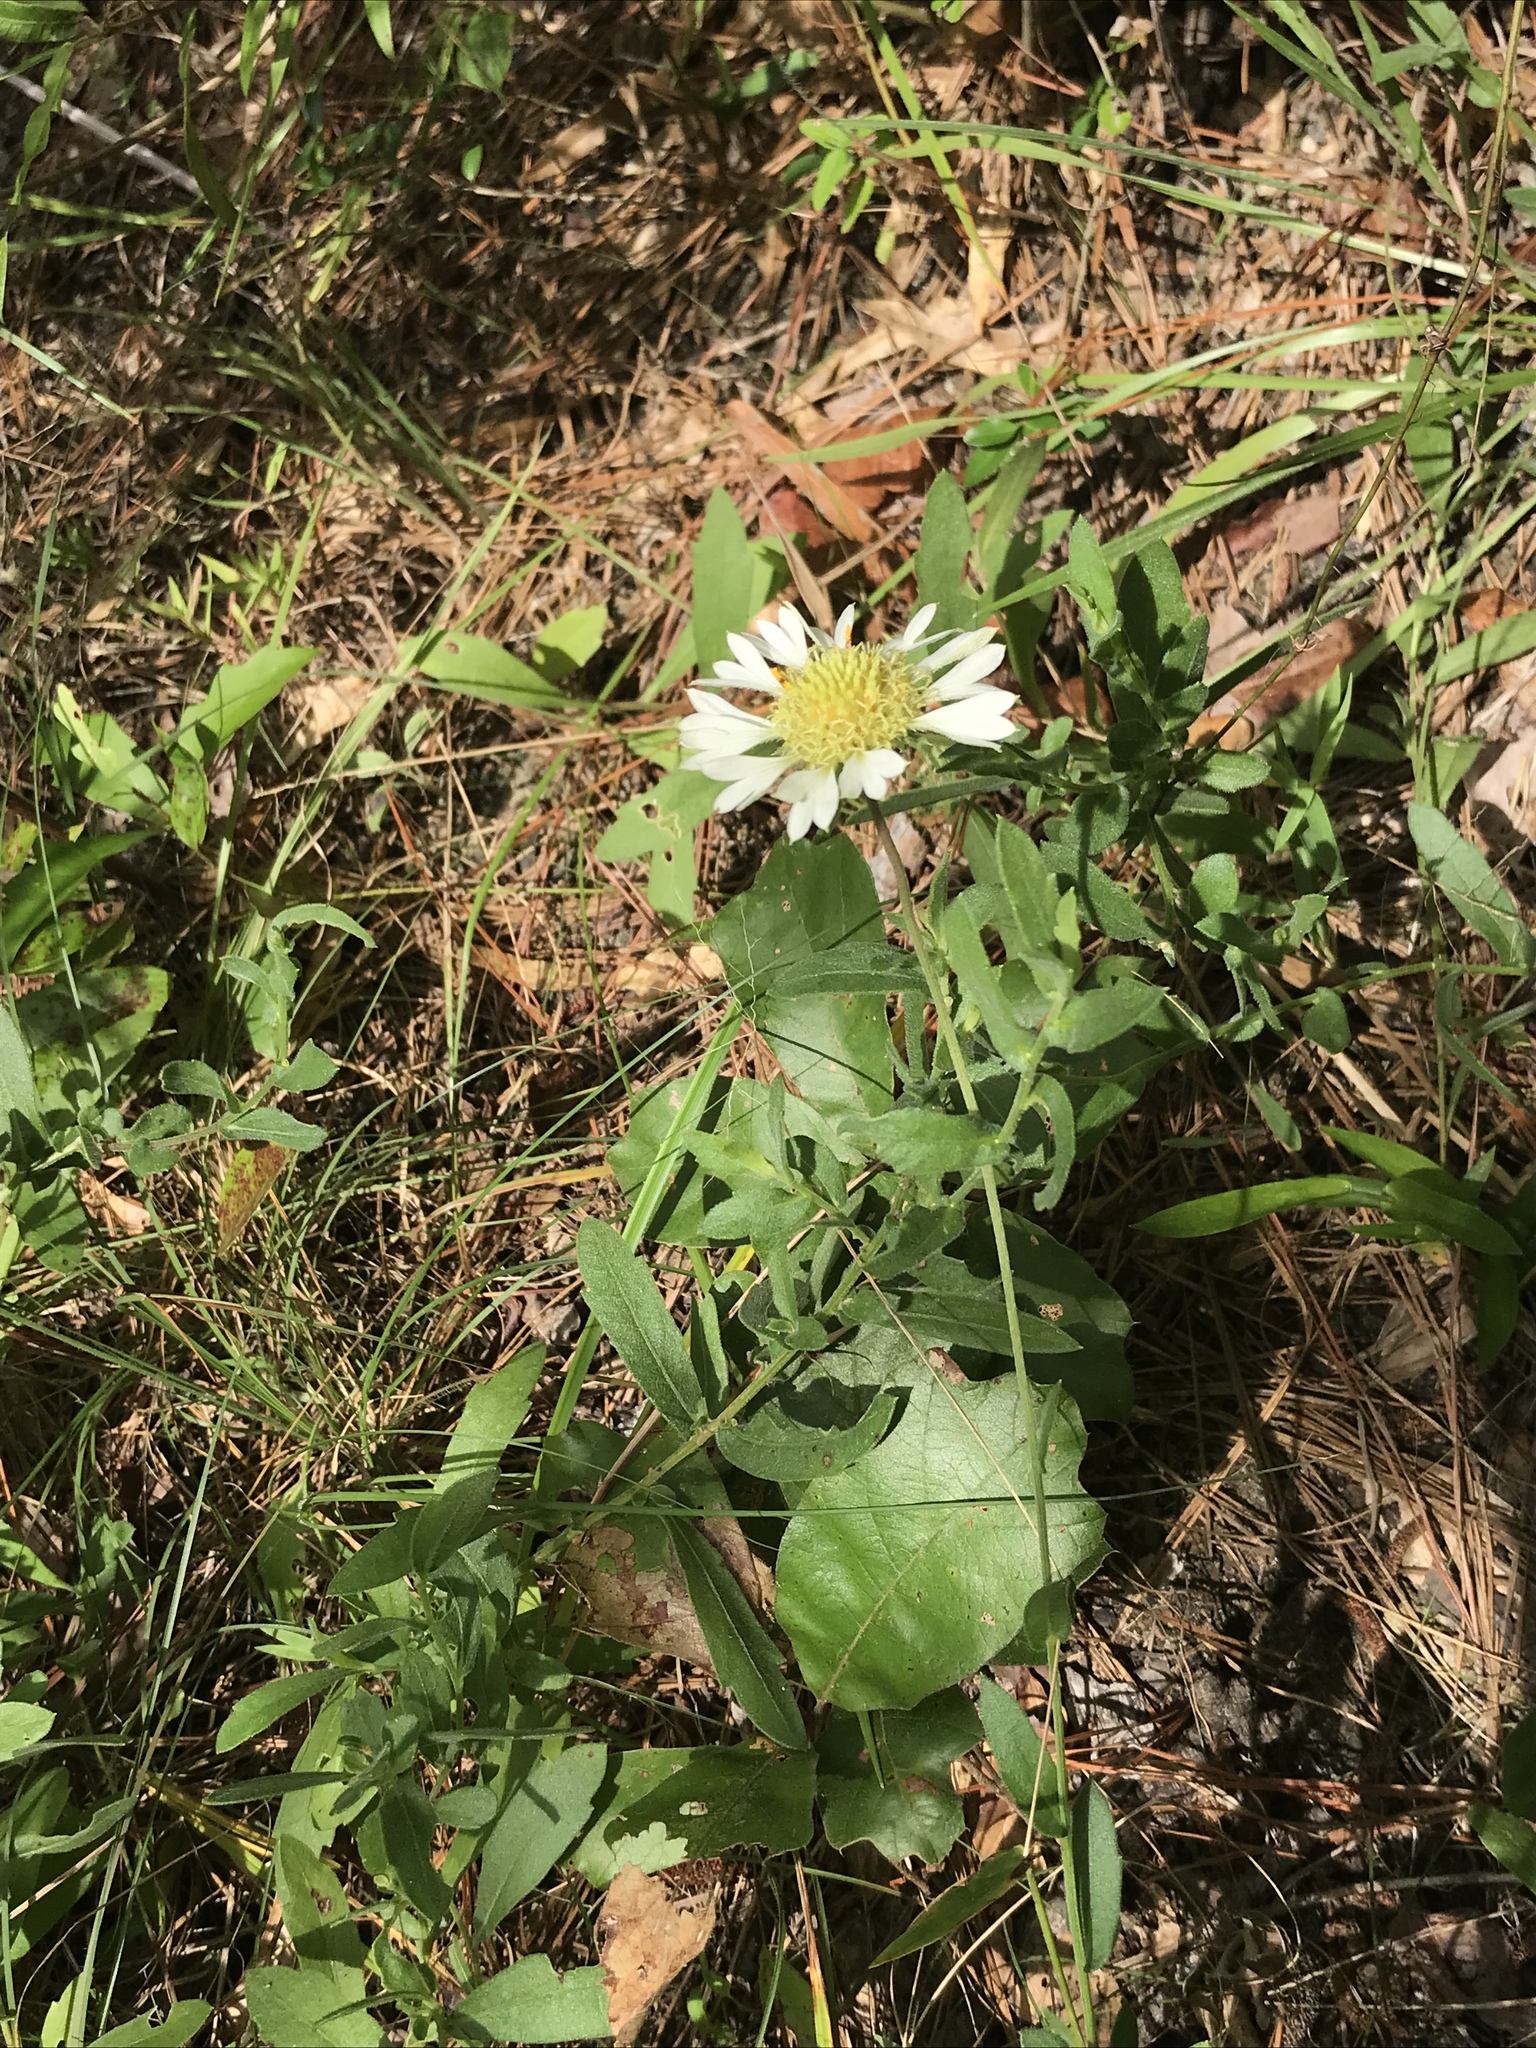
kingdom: Plantae
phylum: Tracheophyta
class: Magnoliopsida
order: Asterales
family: Asteraceae
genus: Gaillardia
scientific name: Gaillardia aestivalis
